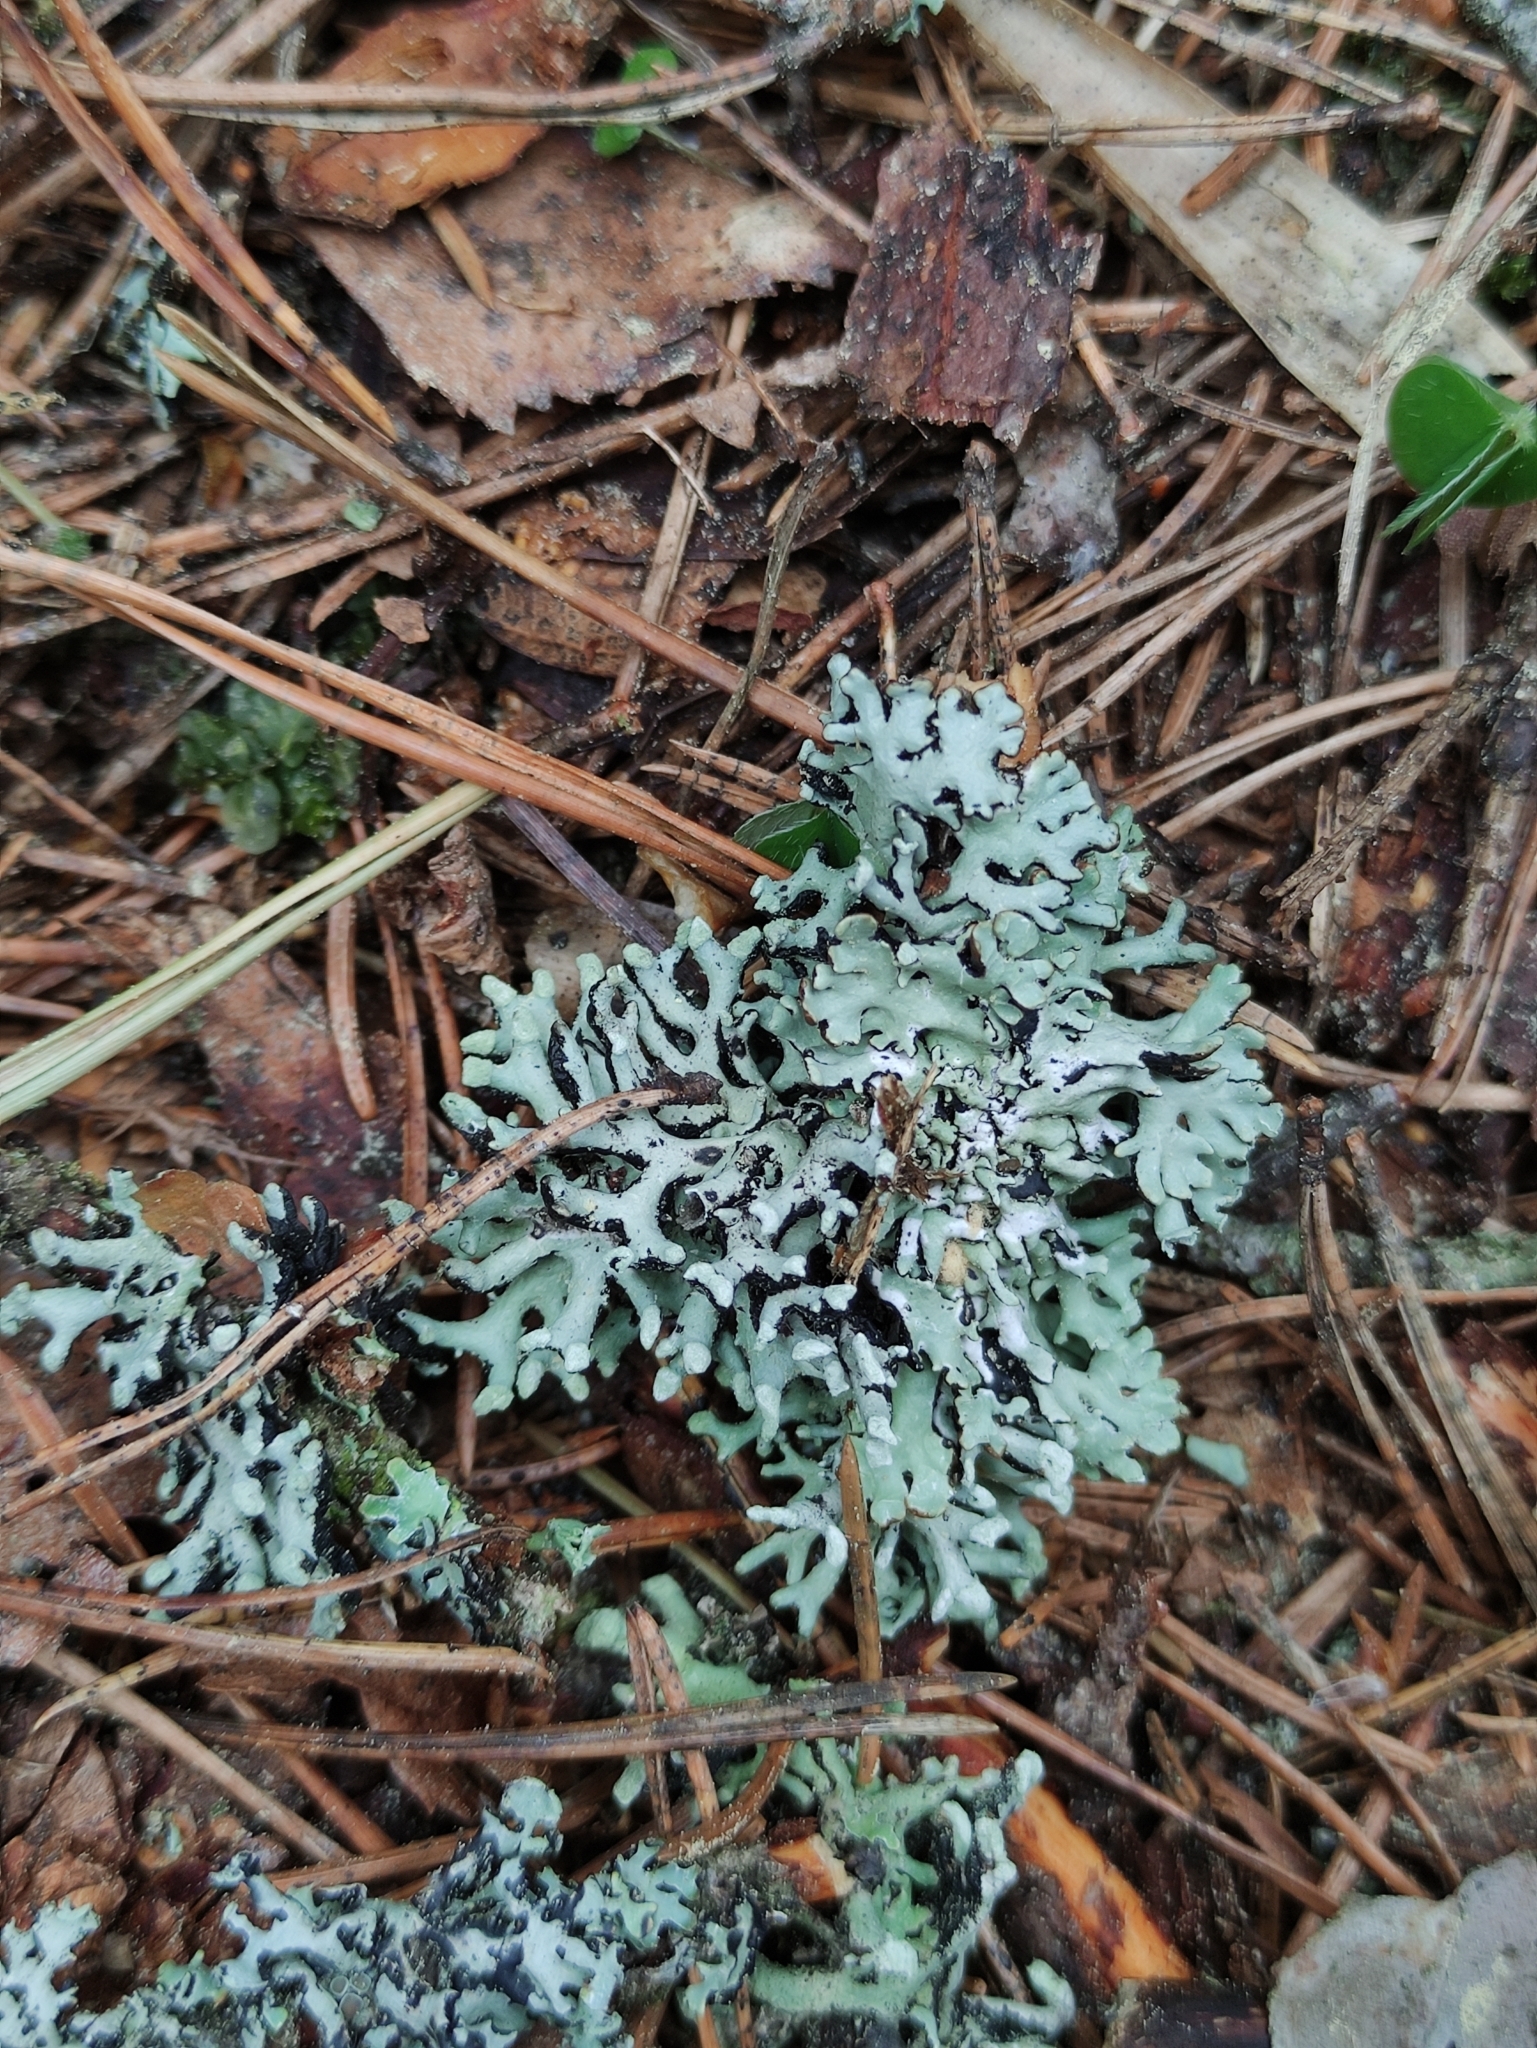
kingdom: Fungi
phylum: Ascomycota
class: Lecanoromycetes
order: Lecanorales
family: Parmeliaceae
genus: Hypogymnia
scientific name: Hypogymnia tubulosa
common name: Powder-headed tube lichen
